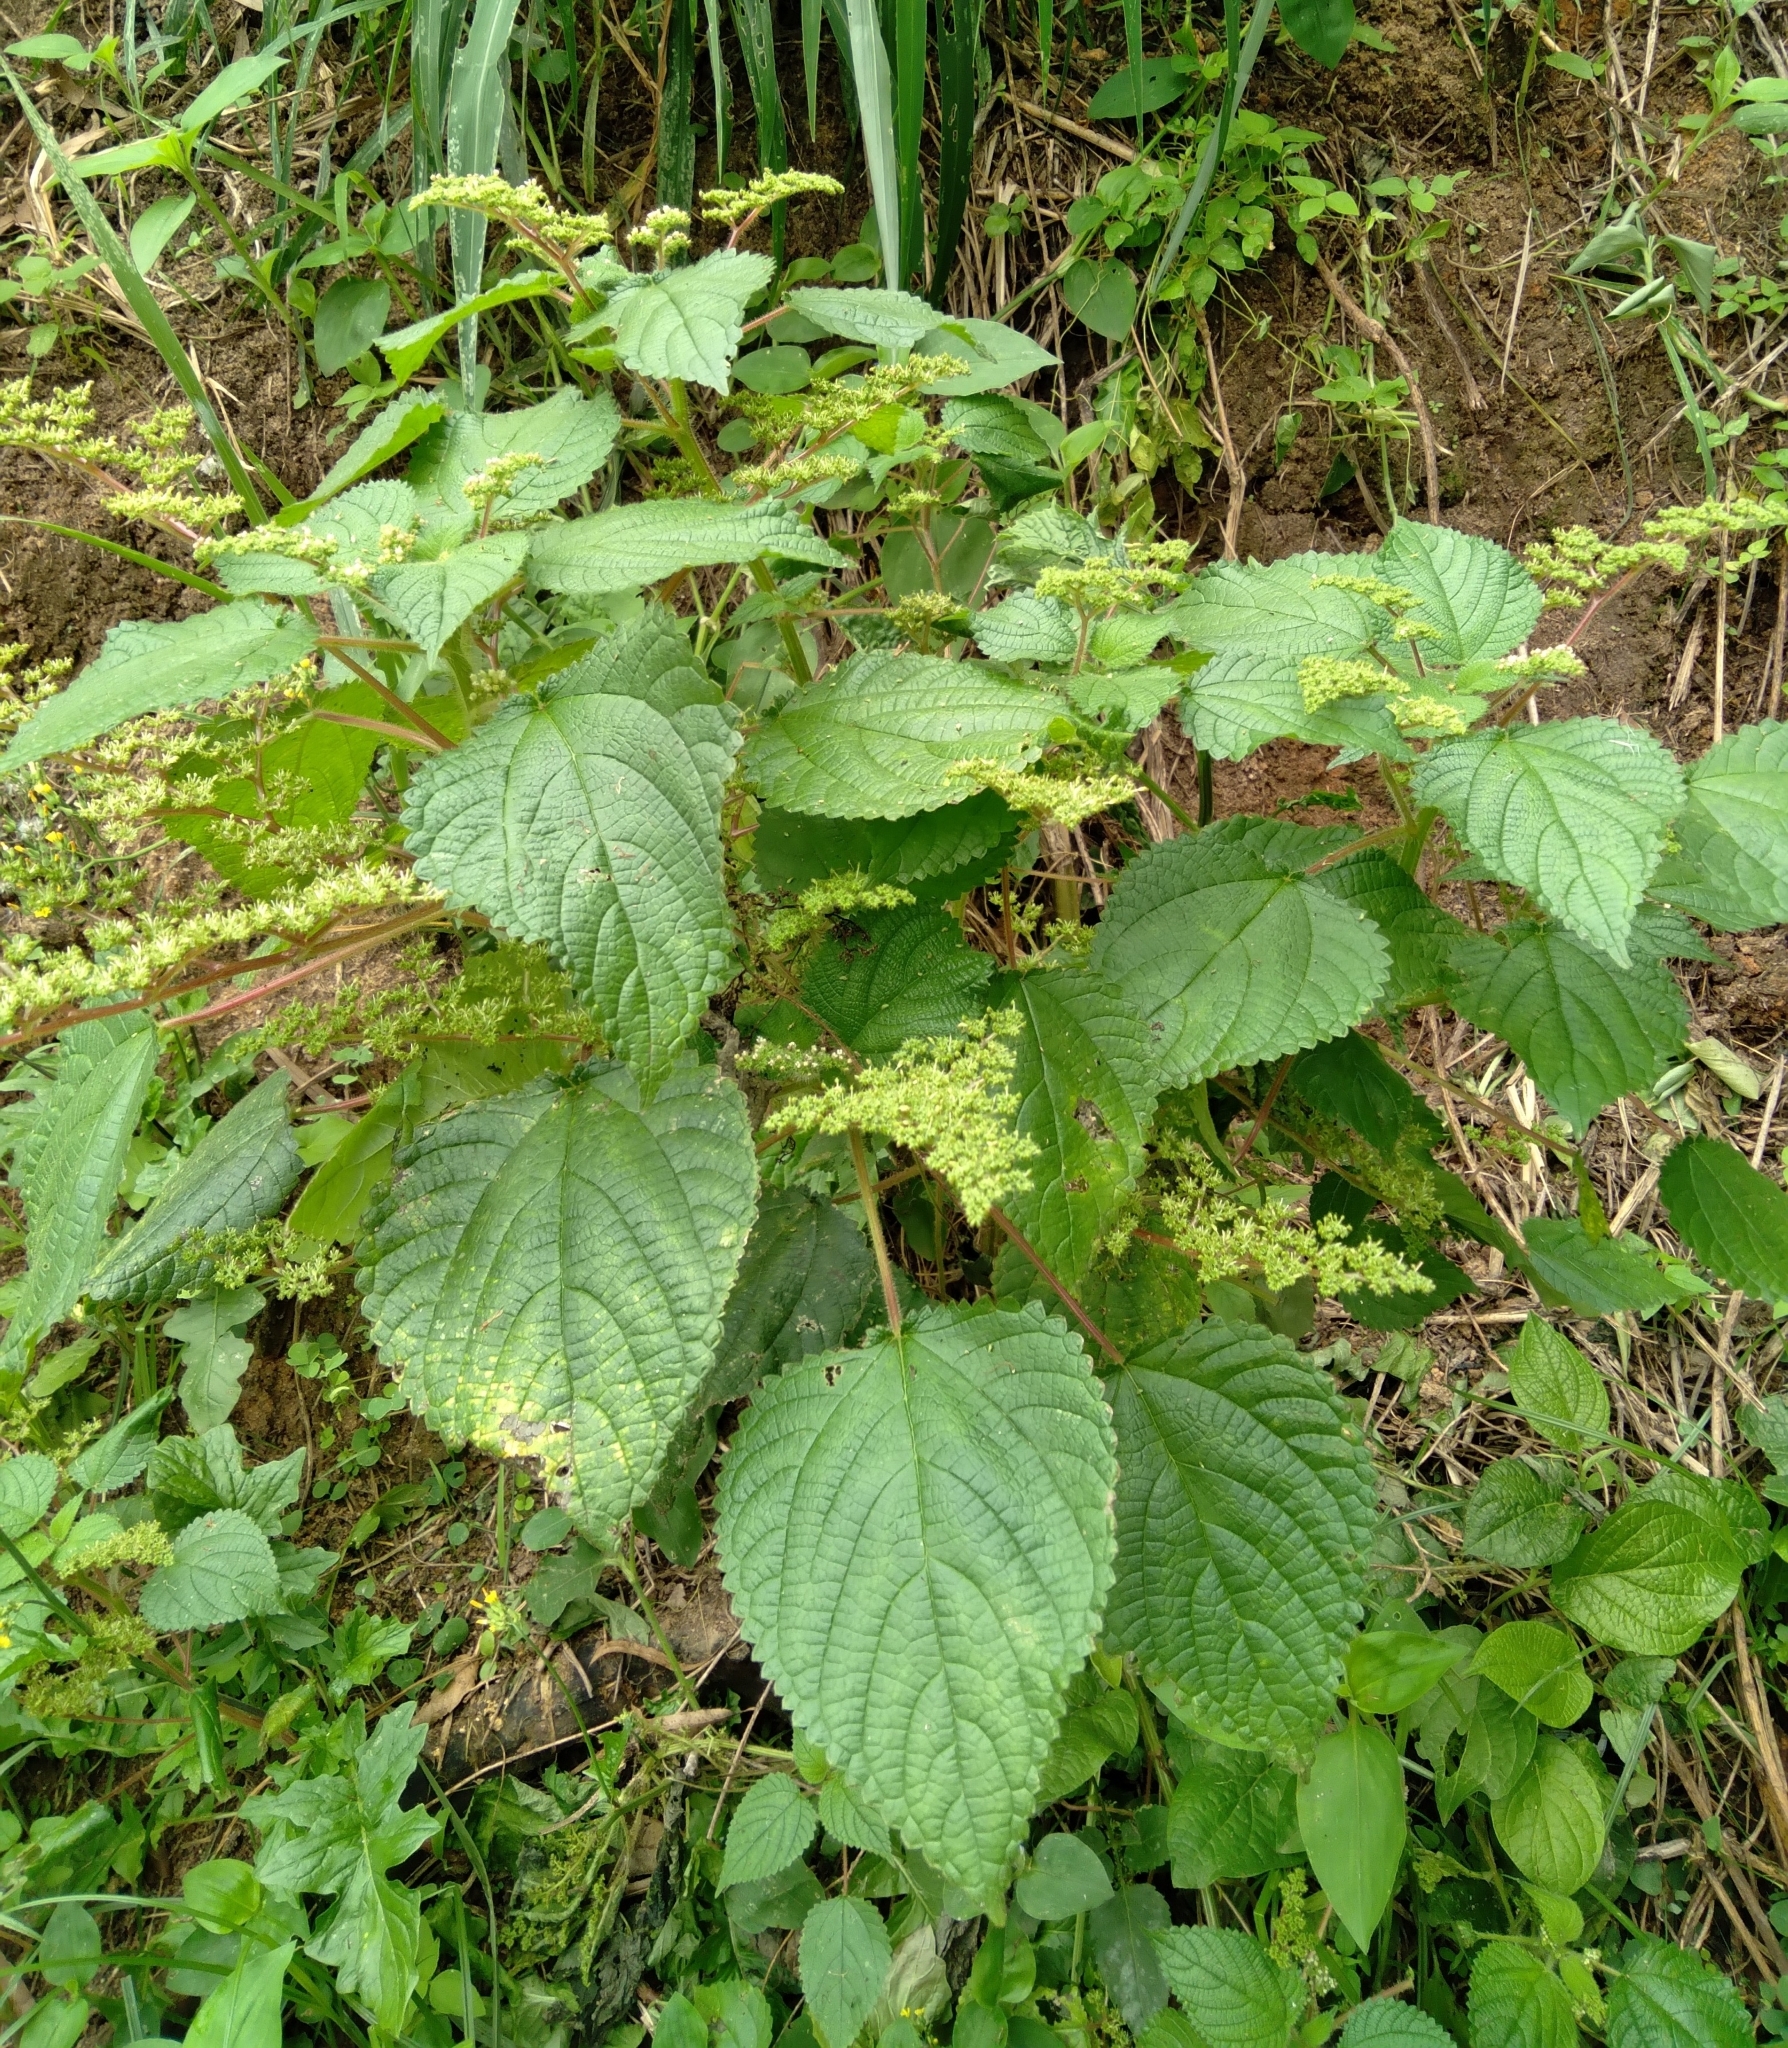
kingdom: Plantae
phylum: Tracheophyta
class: Magnoliopsida
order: Rosales
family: Urticaceae
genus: Laportea
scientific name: Laportea aestuans
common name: West indian woodnettle
